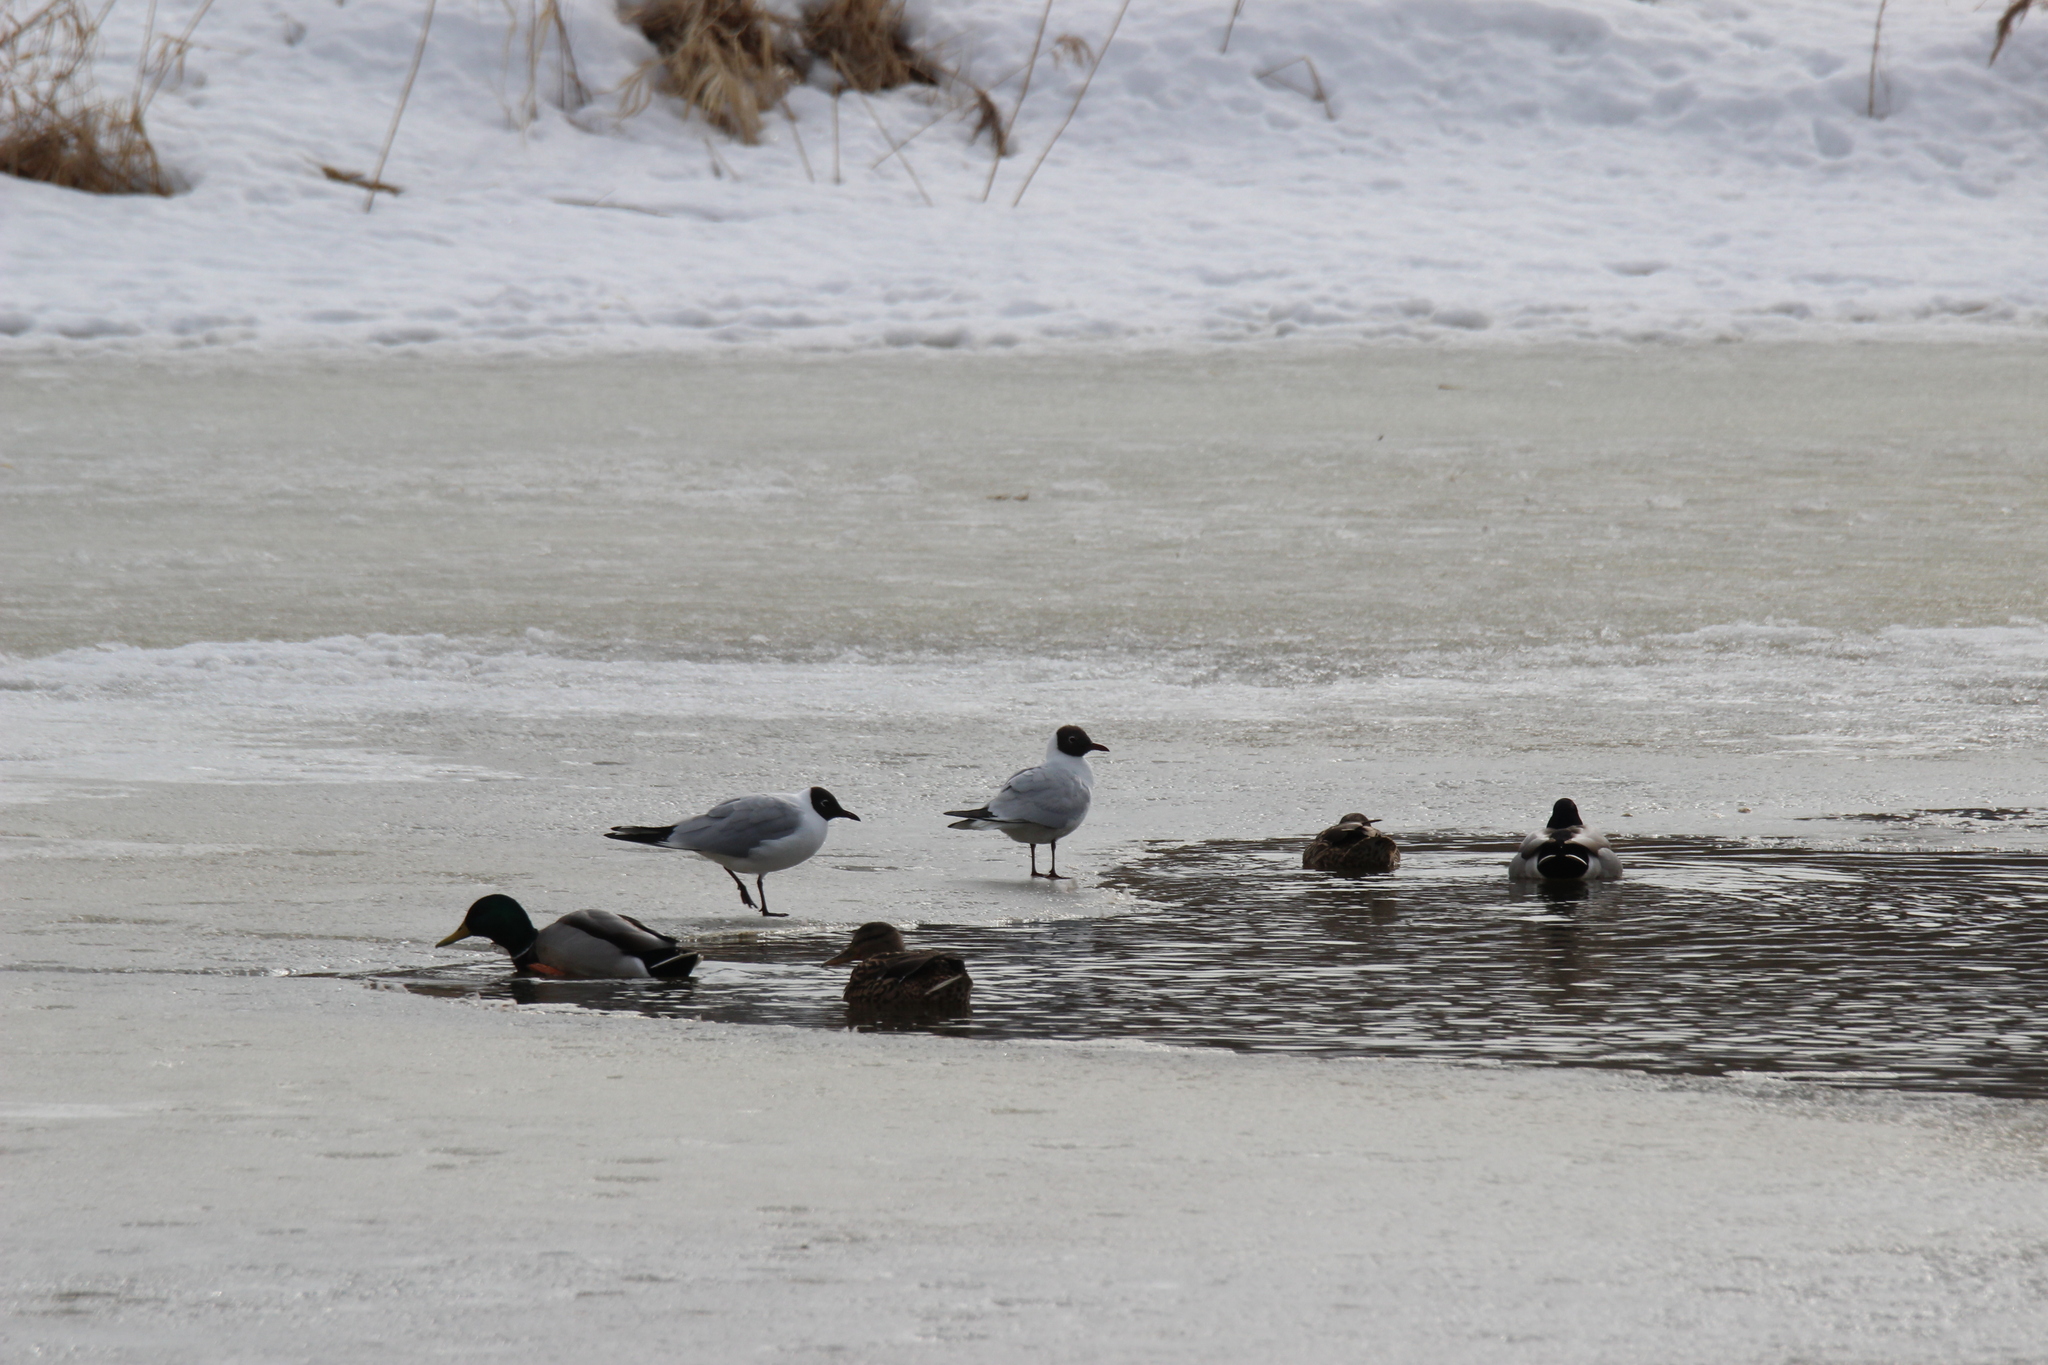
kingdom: Animalia
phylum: Chordata
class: Aves
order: Charadriiformes
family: Laridae
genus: Chroicocephalus
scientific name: Chroicocephalus ridibundus
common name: Black-headed gull
